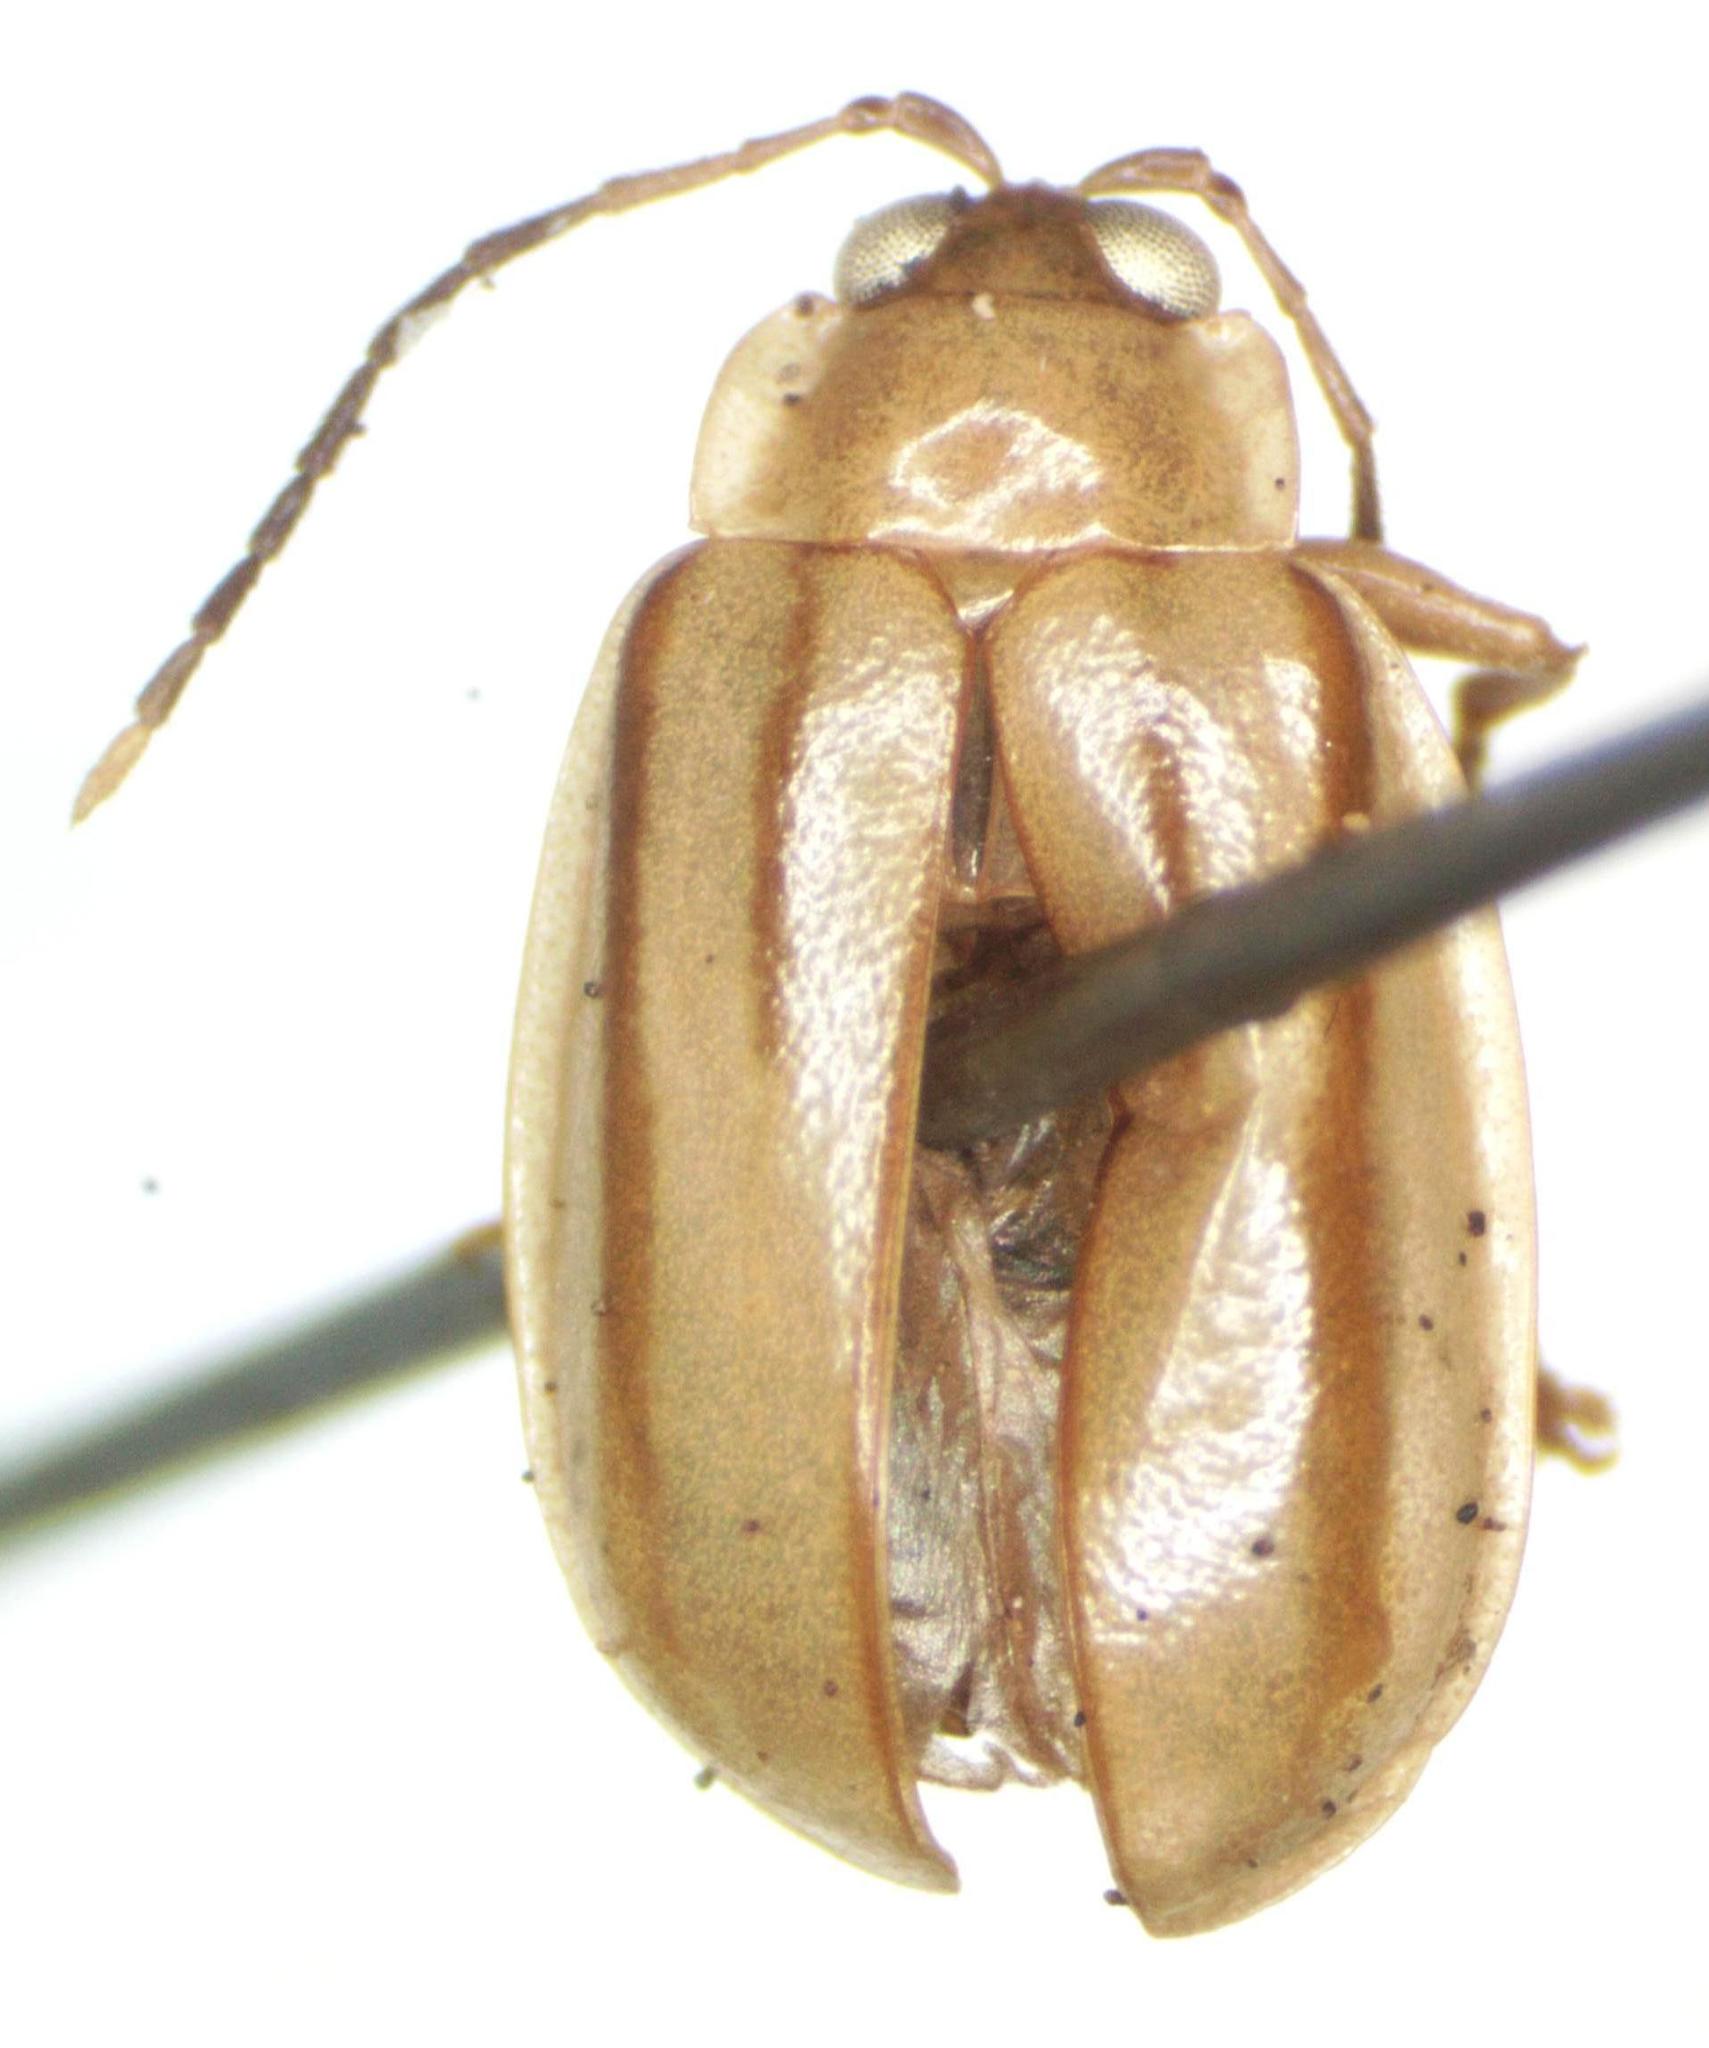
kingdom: Animalia
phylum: Arthropoda
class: Insecta
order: Coleoptera
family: Chrysomelidae
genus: Walterianella
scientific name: Walterianella
